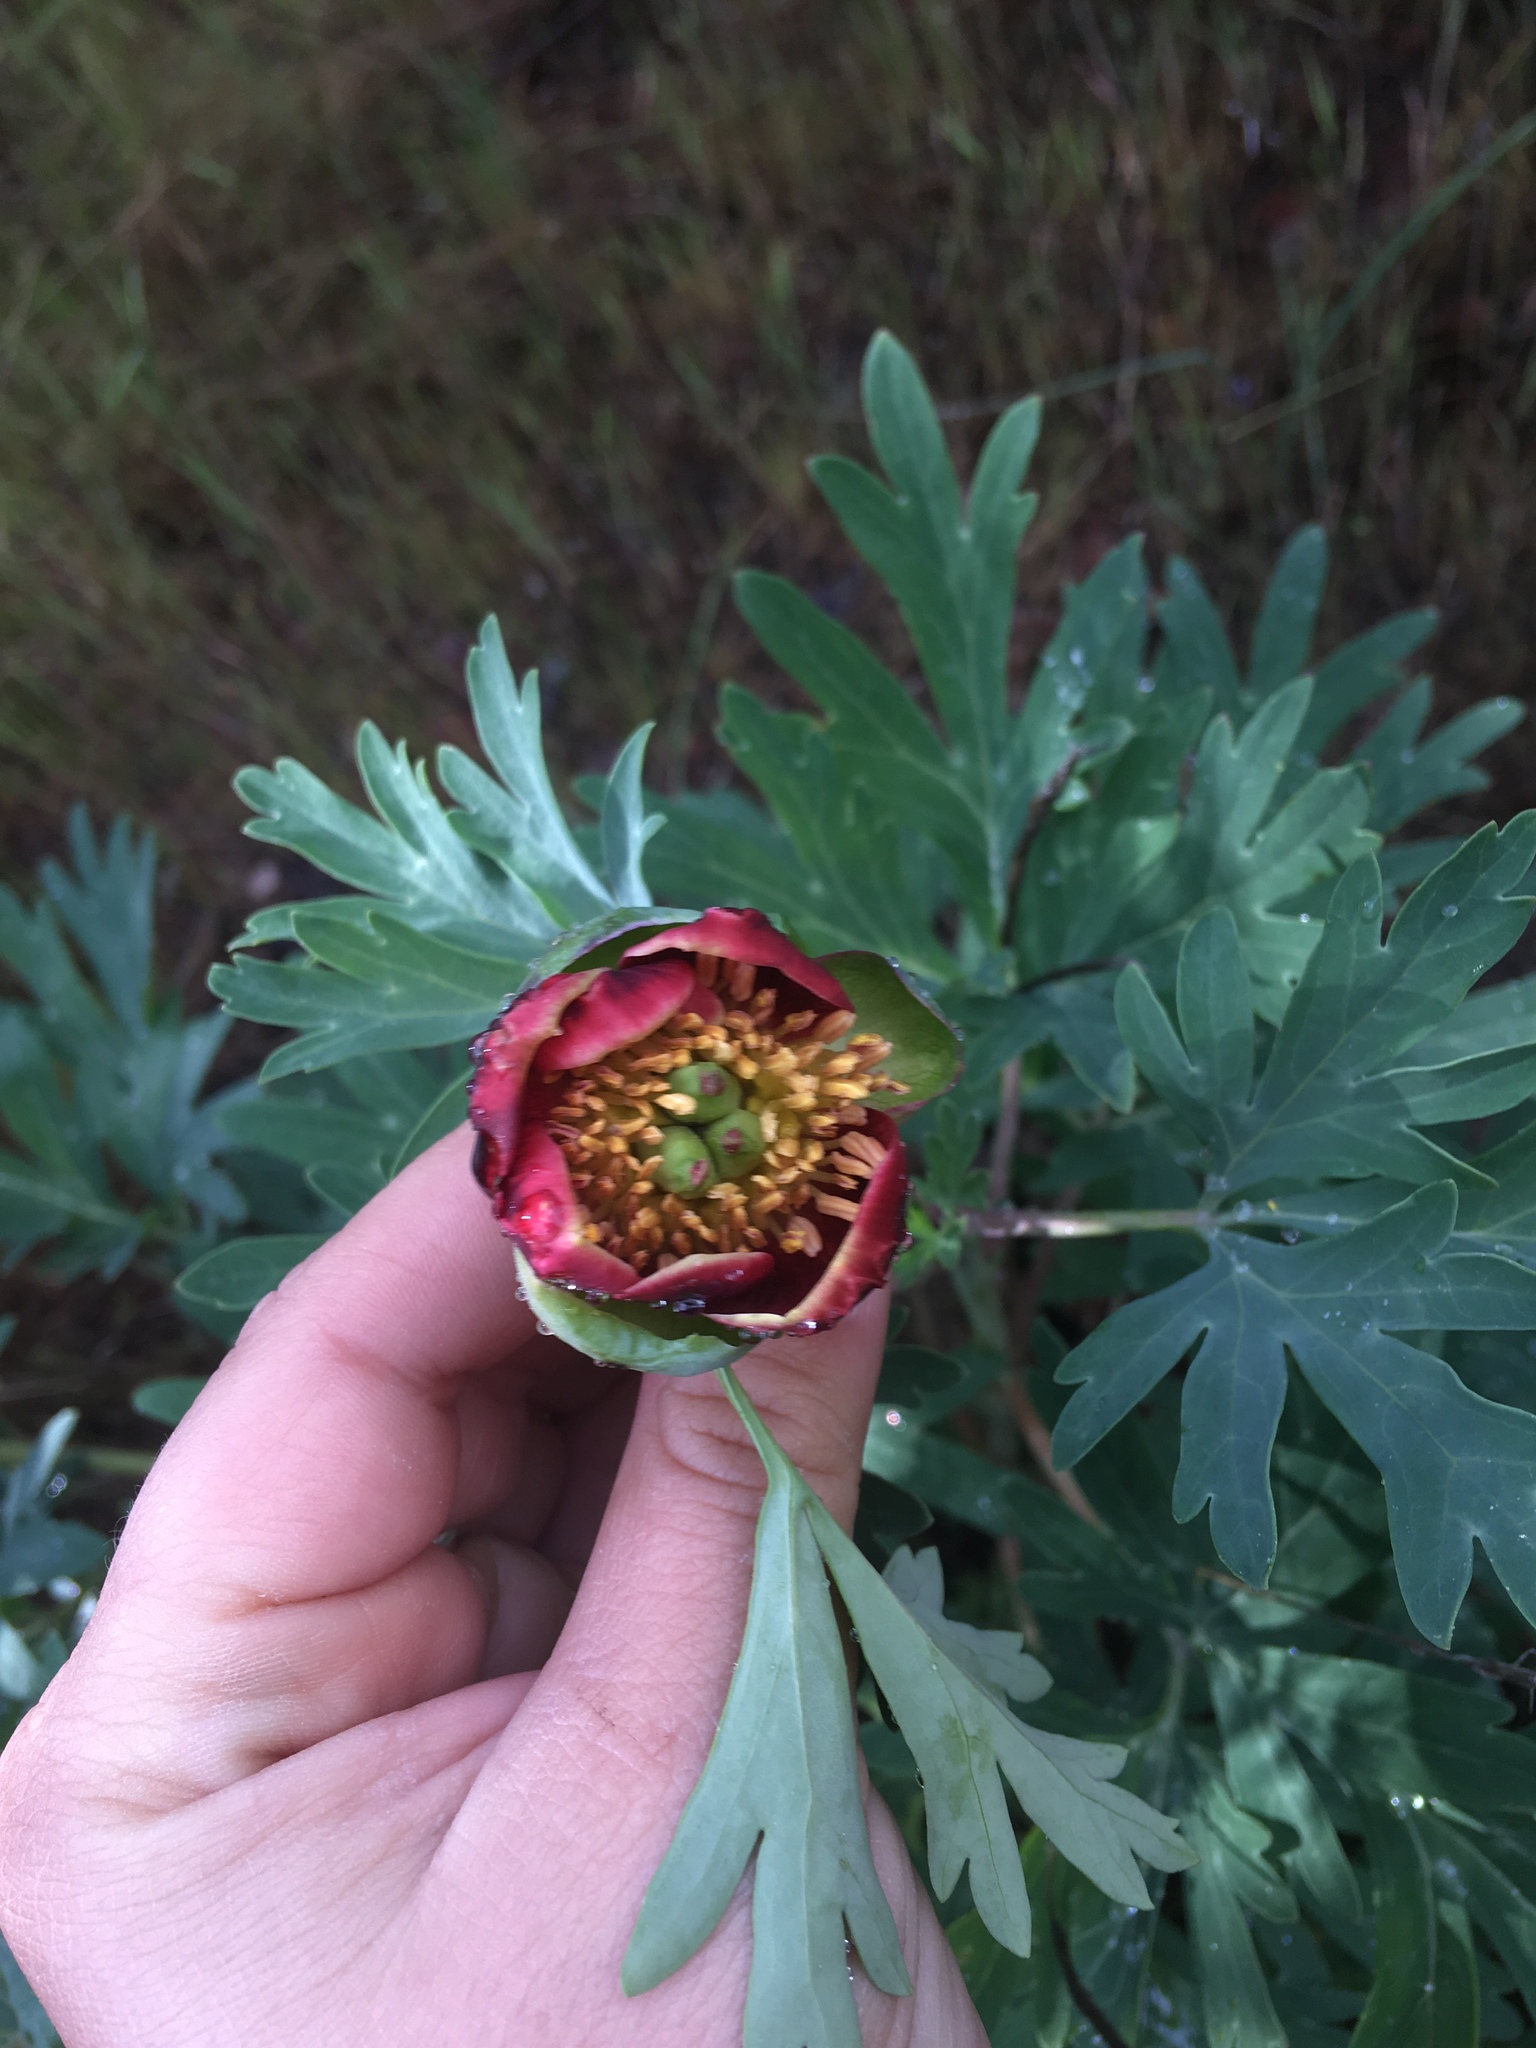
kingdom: Plantae
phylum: Tracheophyta
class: Magnoliopsida
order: Saxifragales
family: Paeoniaceae
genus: Paeonia
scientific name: Paeonia californica
